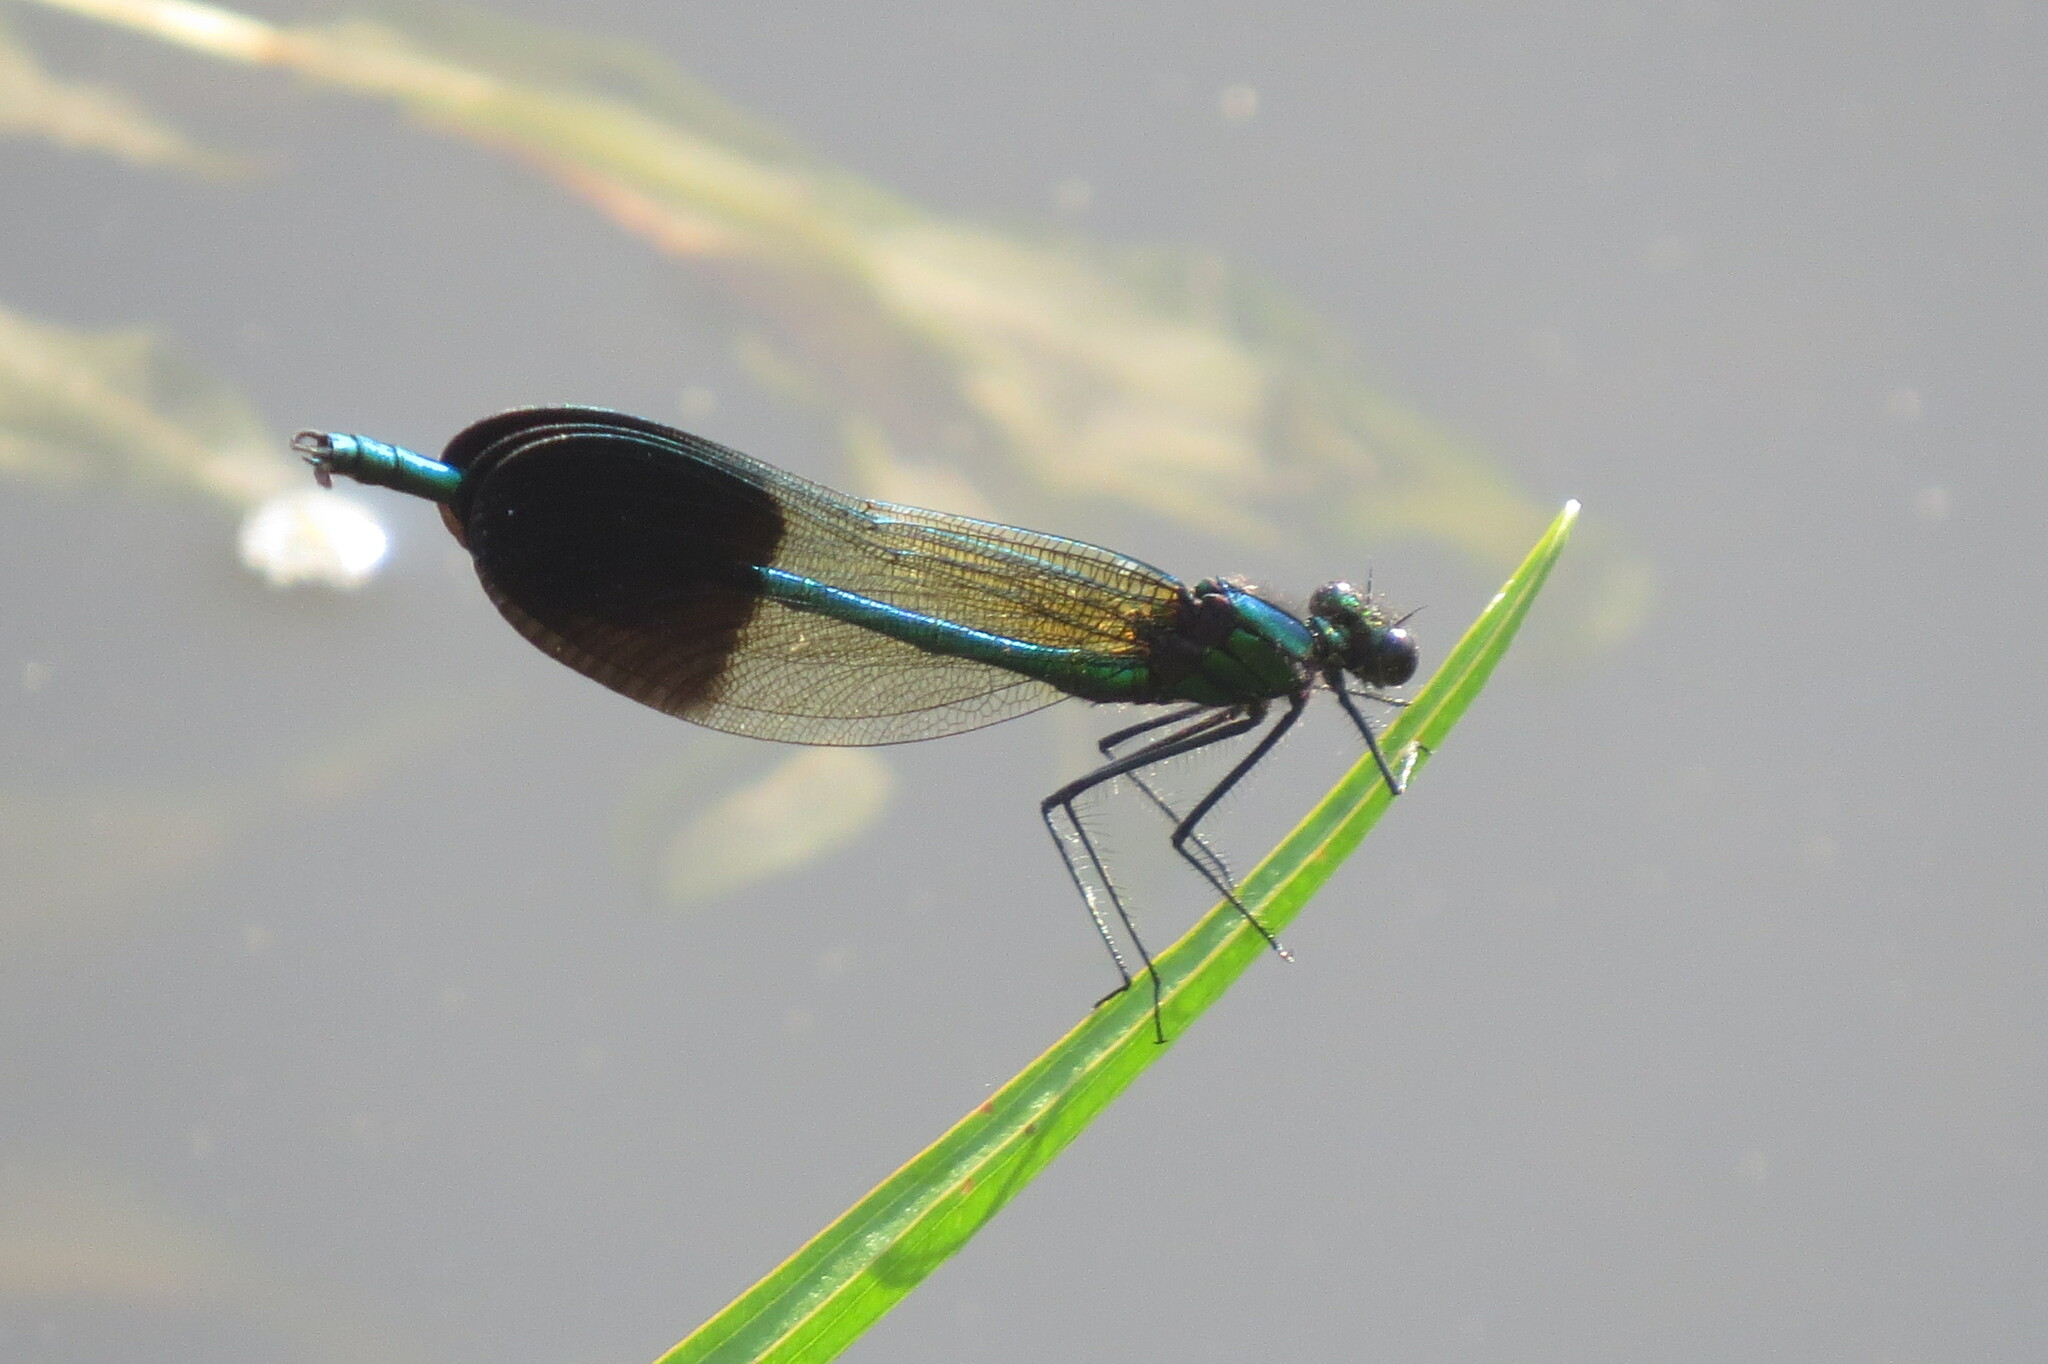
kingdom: Animalia
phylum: Arthropoda
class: Insecta
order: Odonata
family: Calopterygidae
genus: Calopteryx
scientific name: Calopteryx aequabilis
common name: River jewelwing
